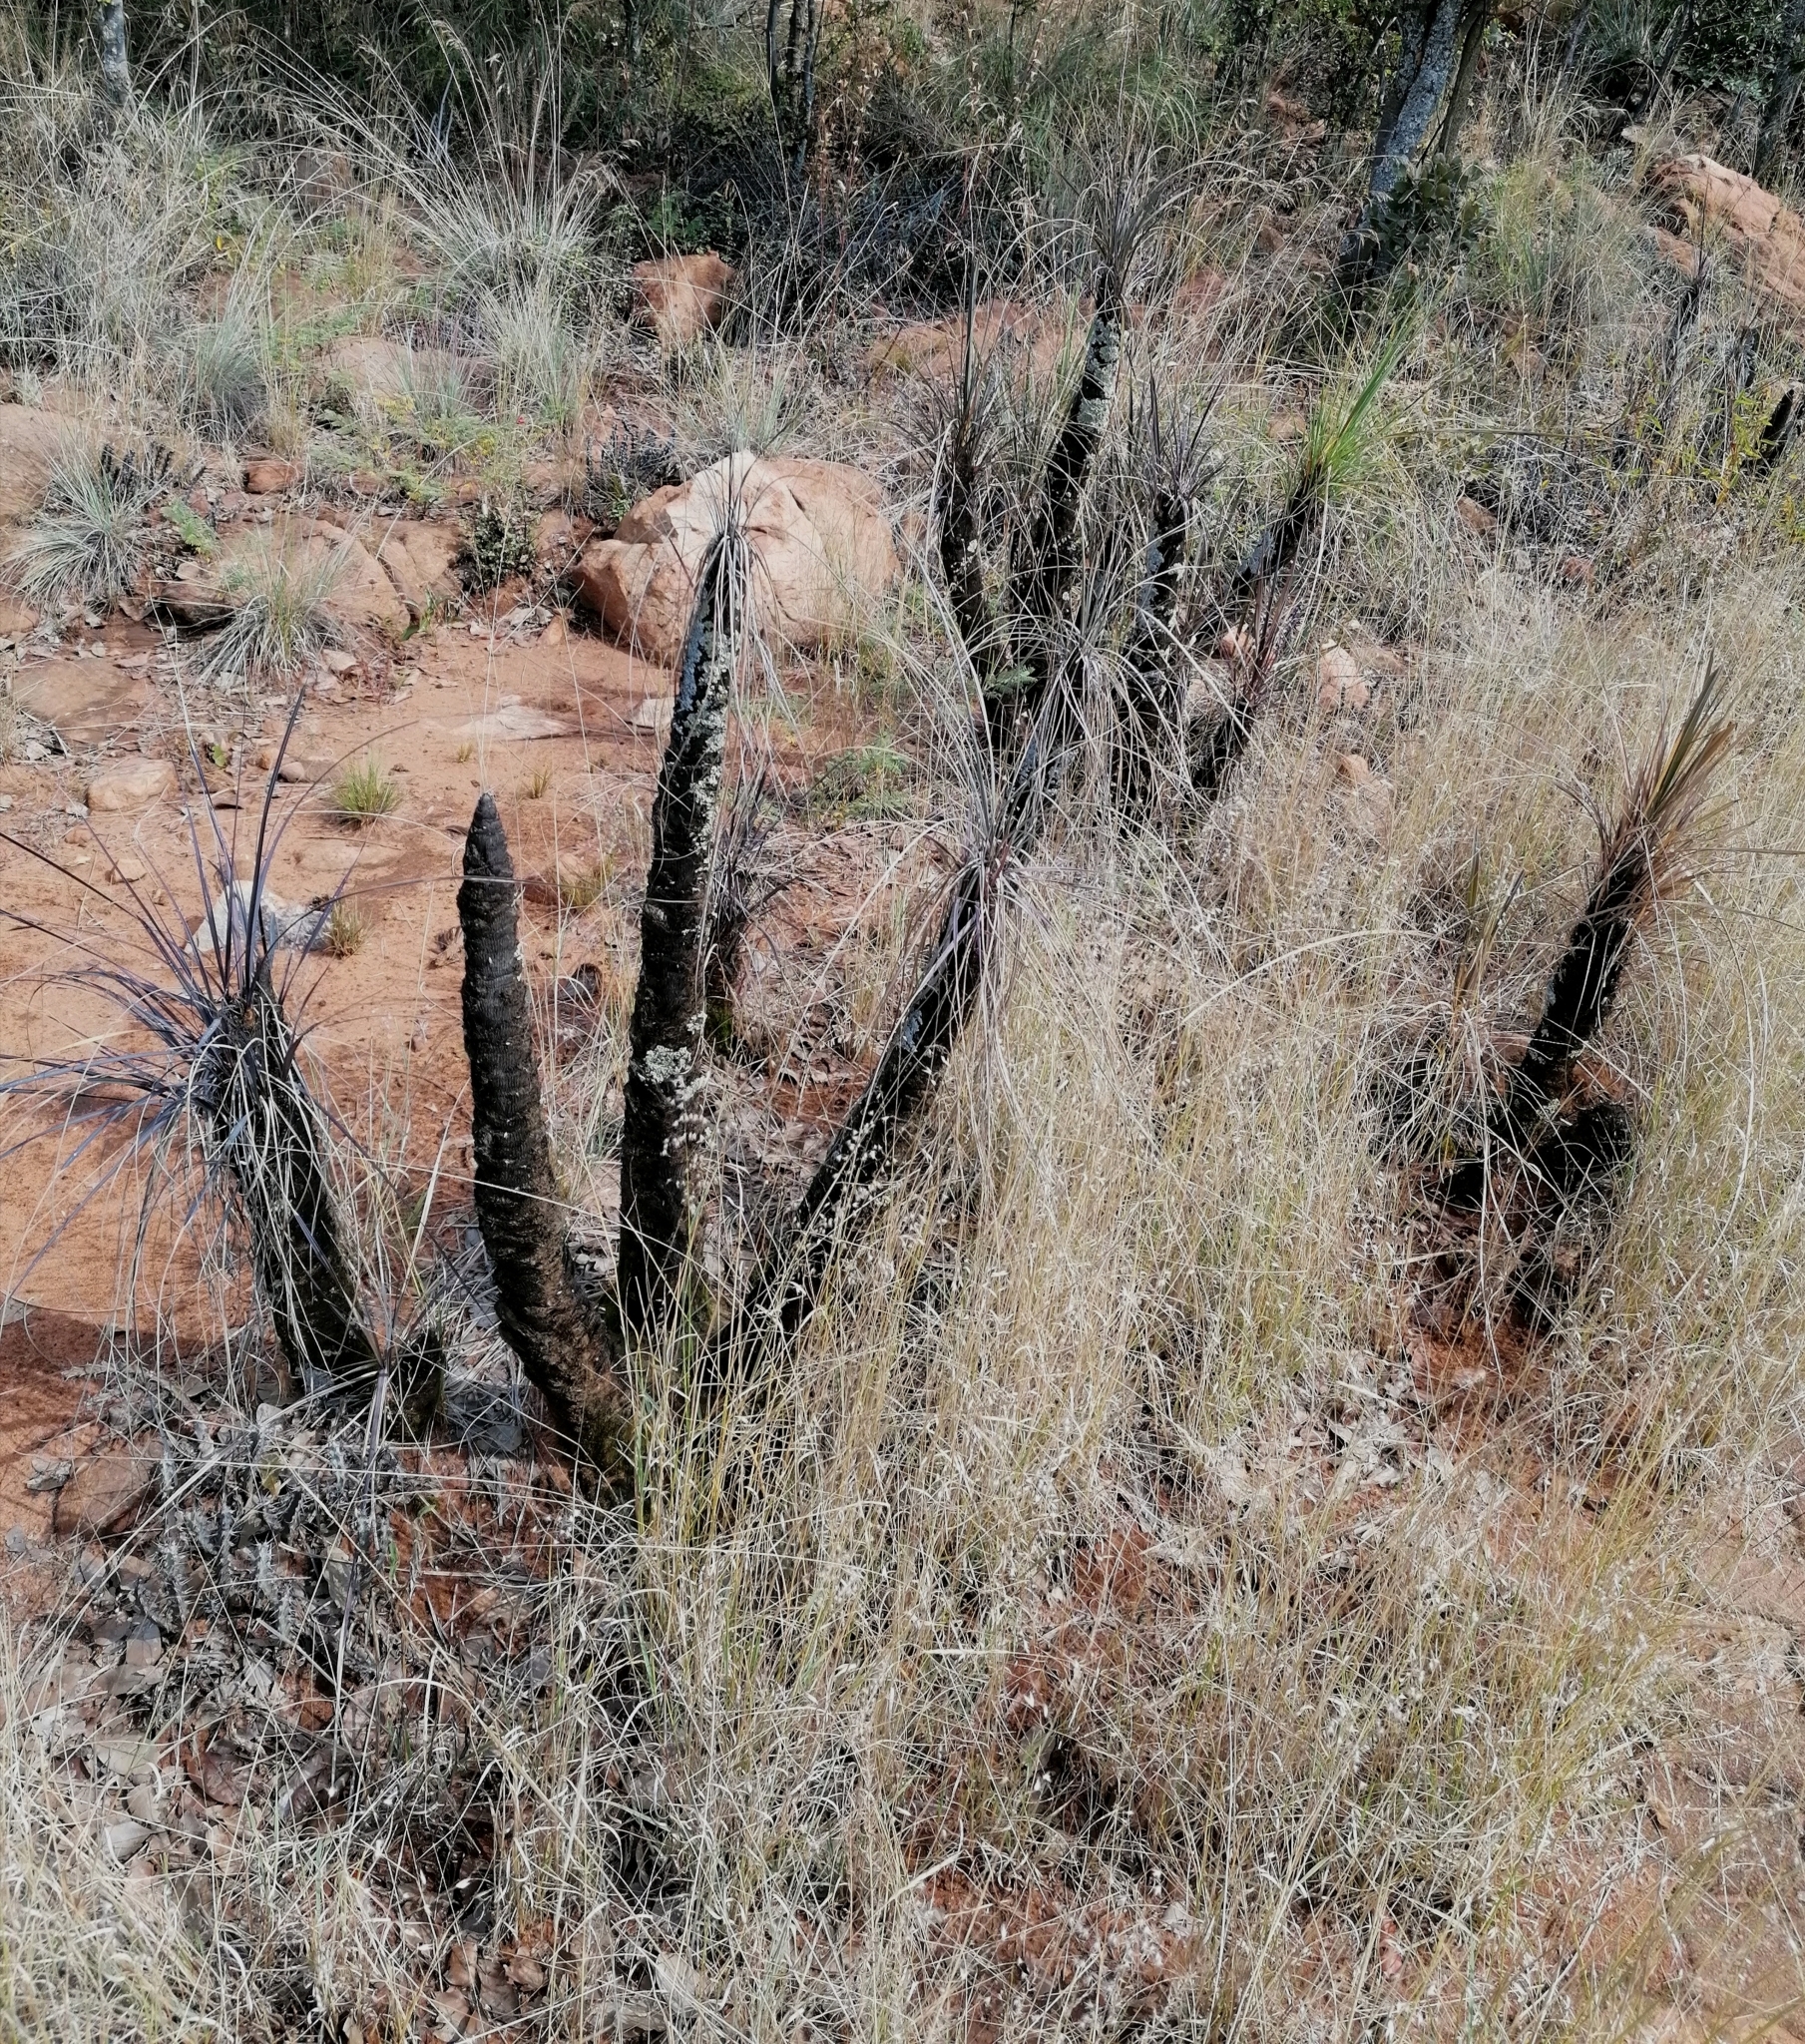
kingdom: Plantae
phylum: Tracheophyta
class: Liliopsida
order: Pandanales
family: Velloziaceae
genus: Xerophyta
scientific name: Xerophyta retinervis
